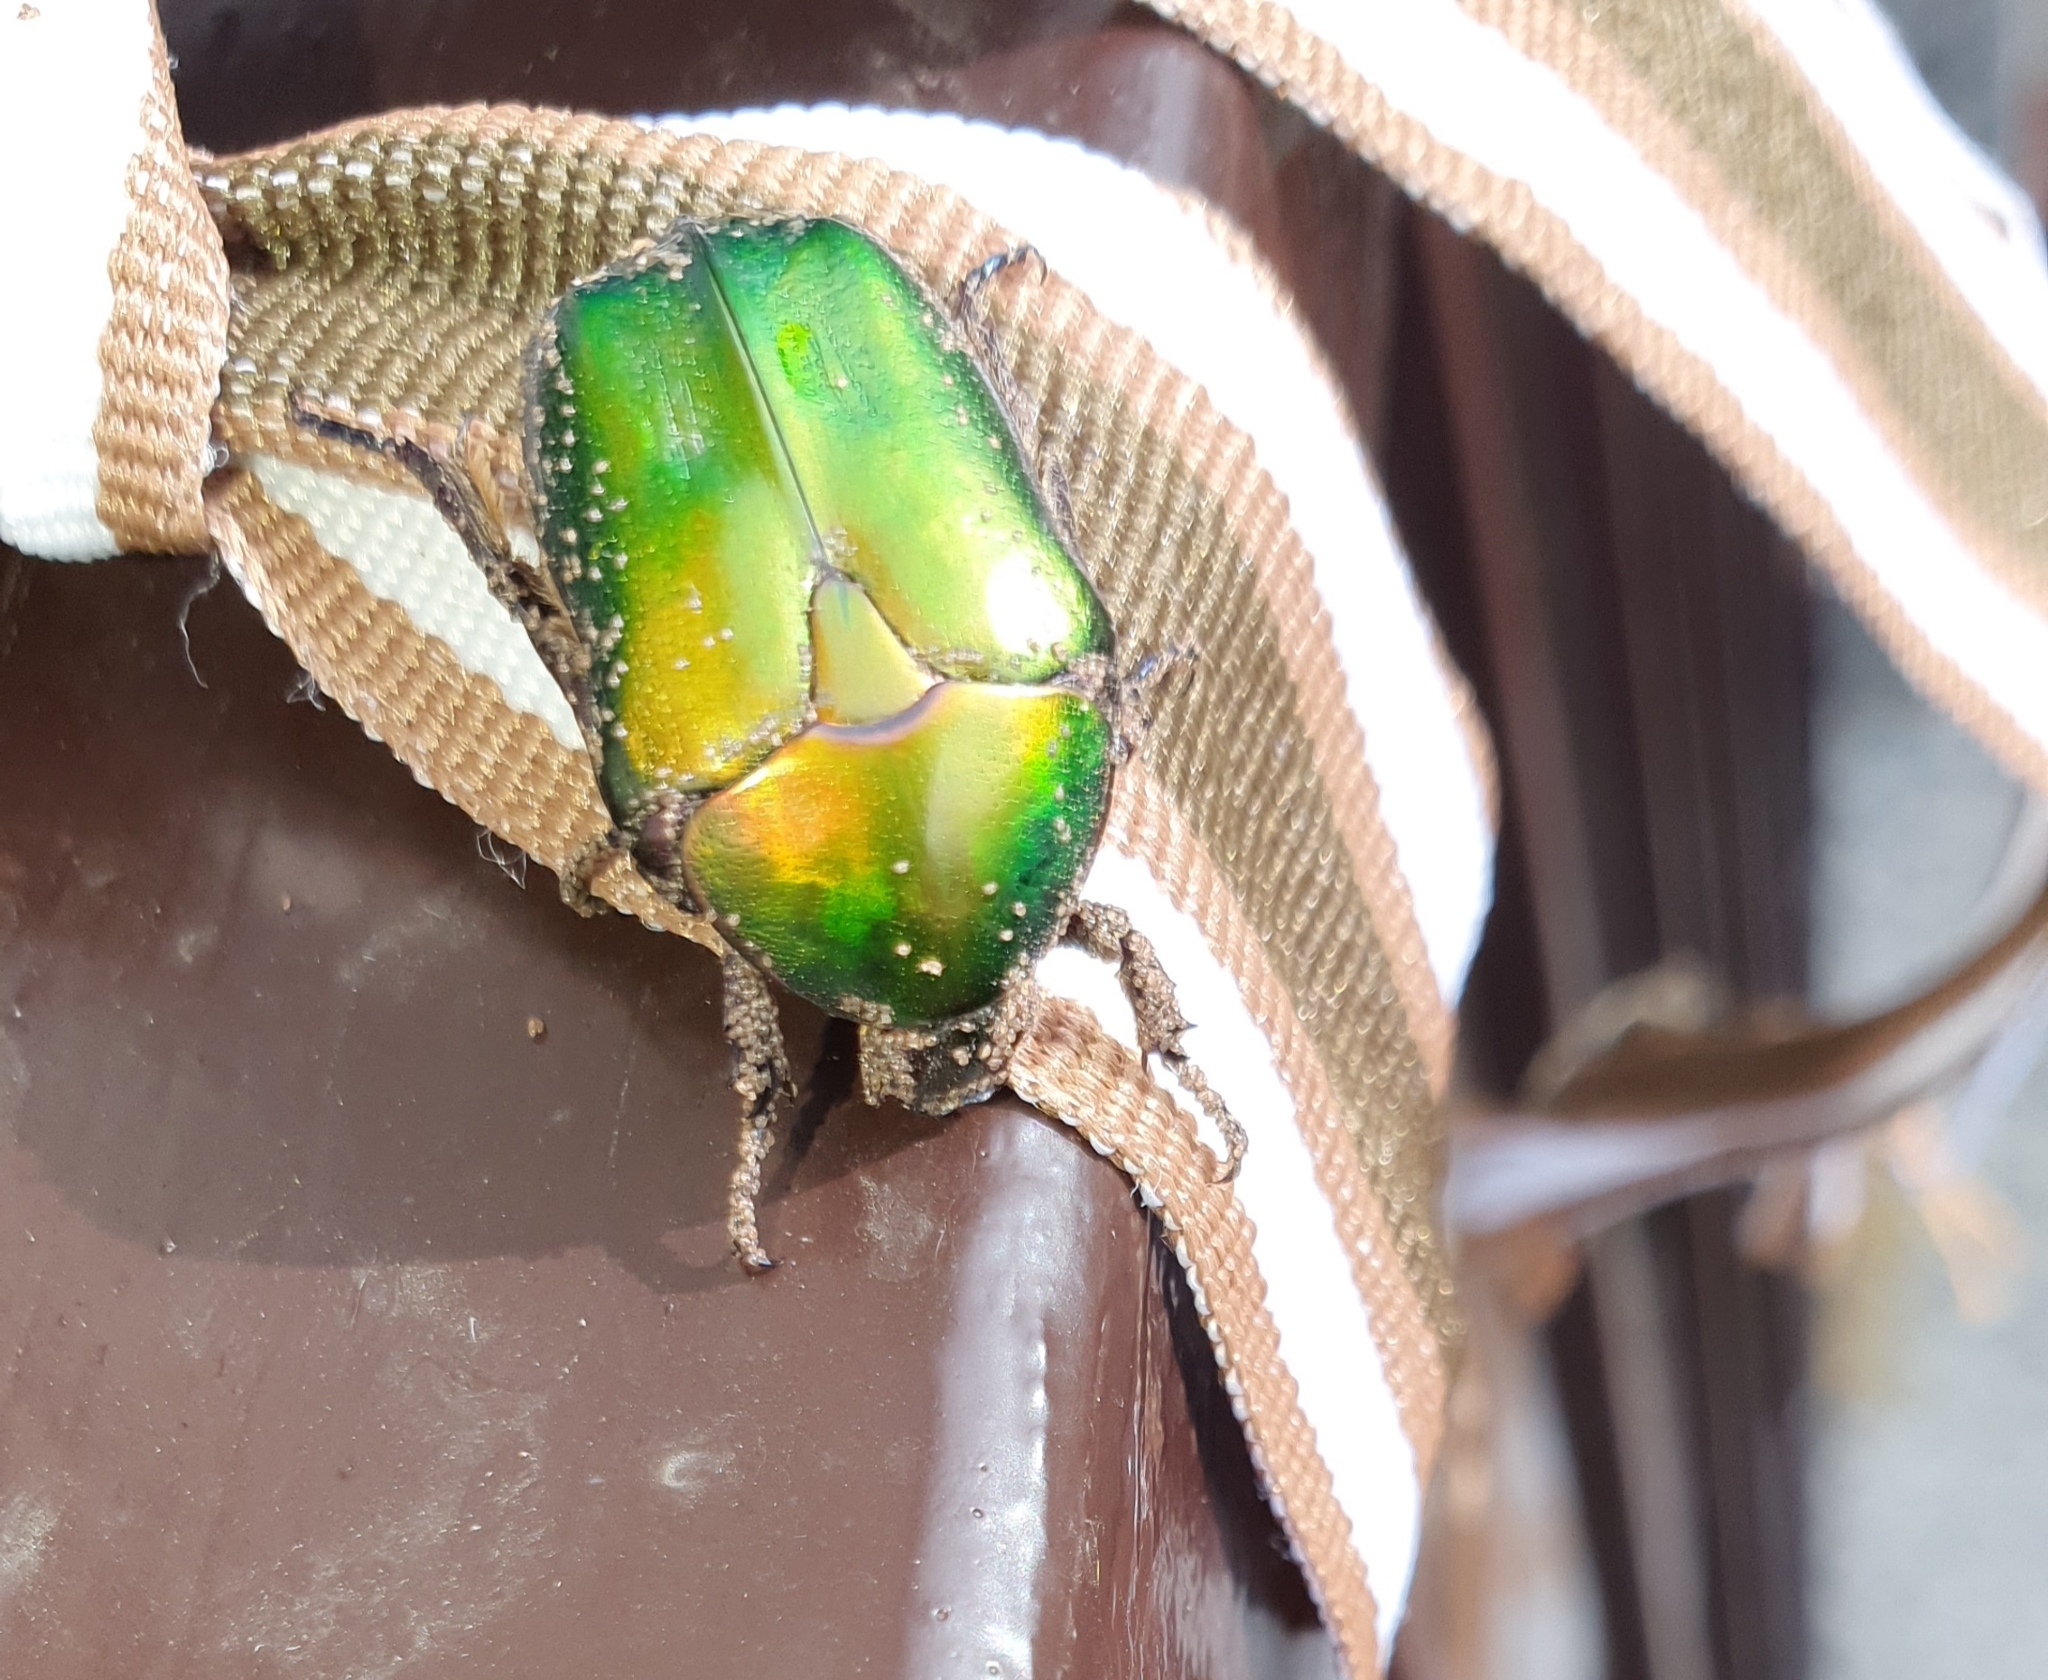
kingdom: Animalia
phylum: Arthropoda
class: Insecta
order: Coleoptera
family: Scarabaeidae
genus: Protaetia
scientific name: Protaetia cuprea
